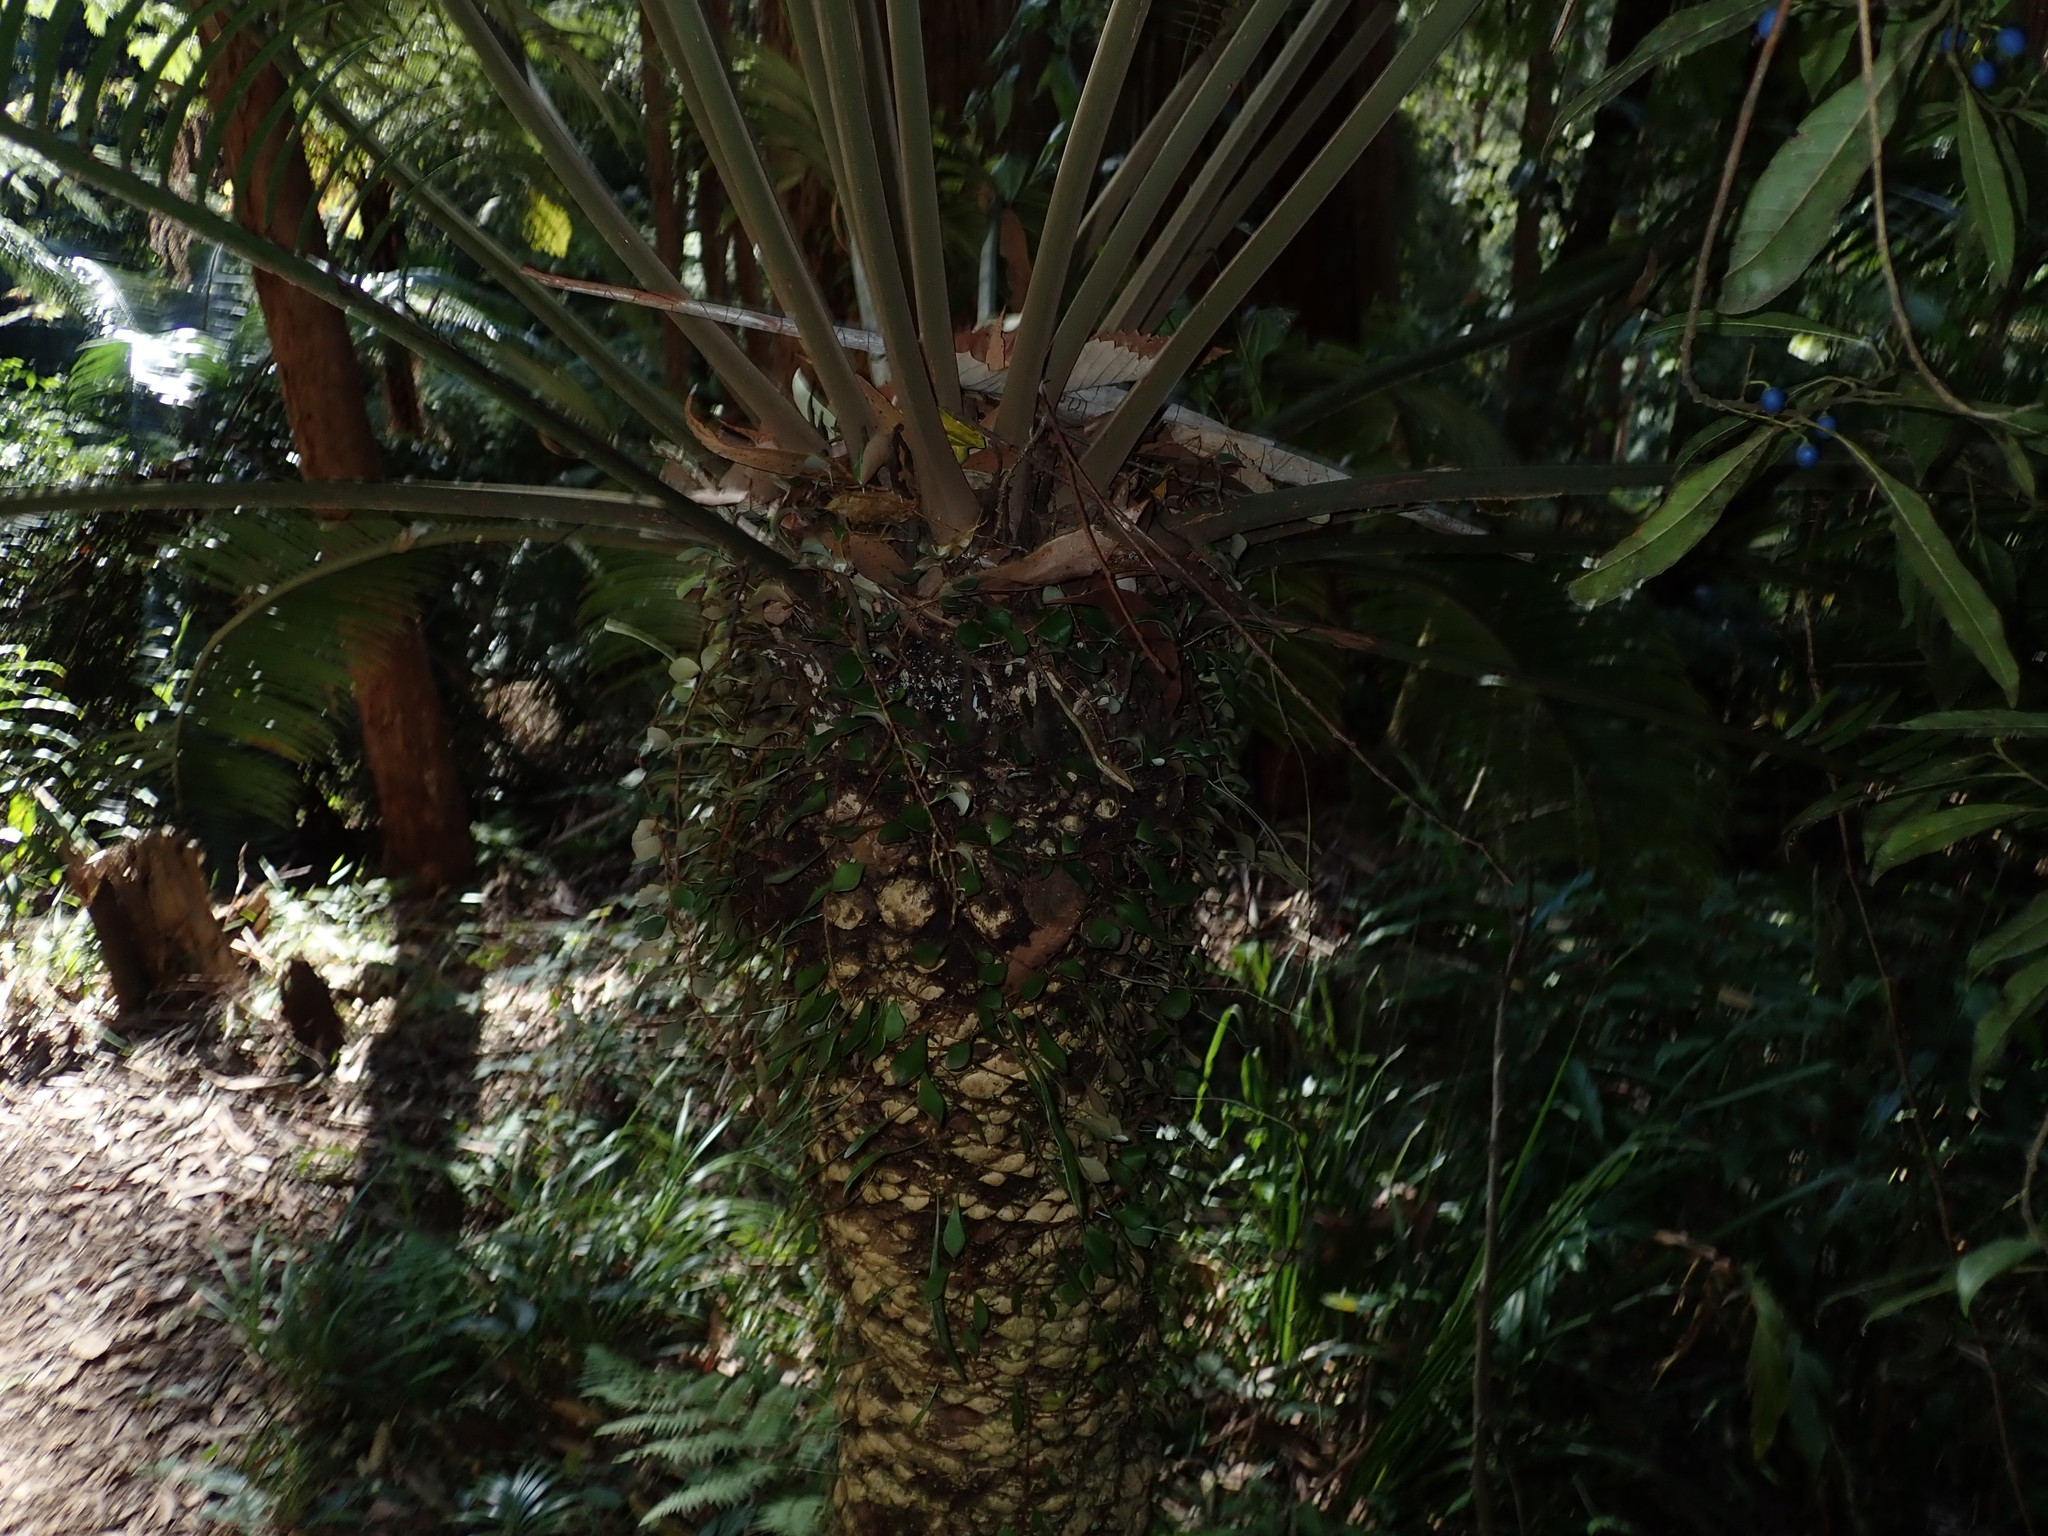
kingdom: Plantae
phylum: Tracheophyta
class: Polypodiopsida
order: Polypodiales
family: Polypodiaceae
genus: Pyrrosia
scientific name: Pyrrosia rupestris
